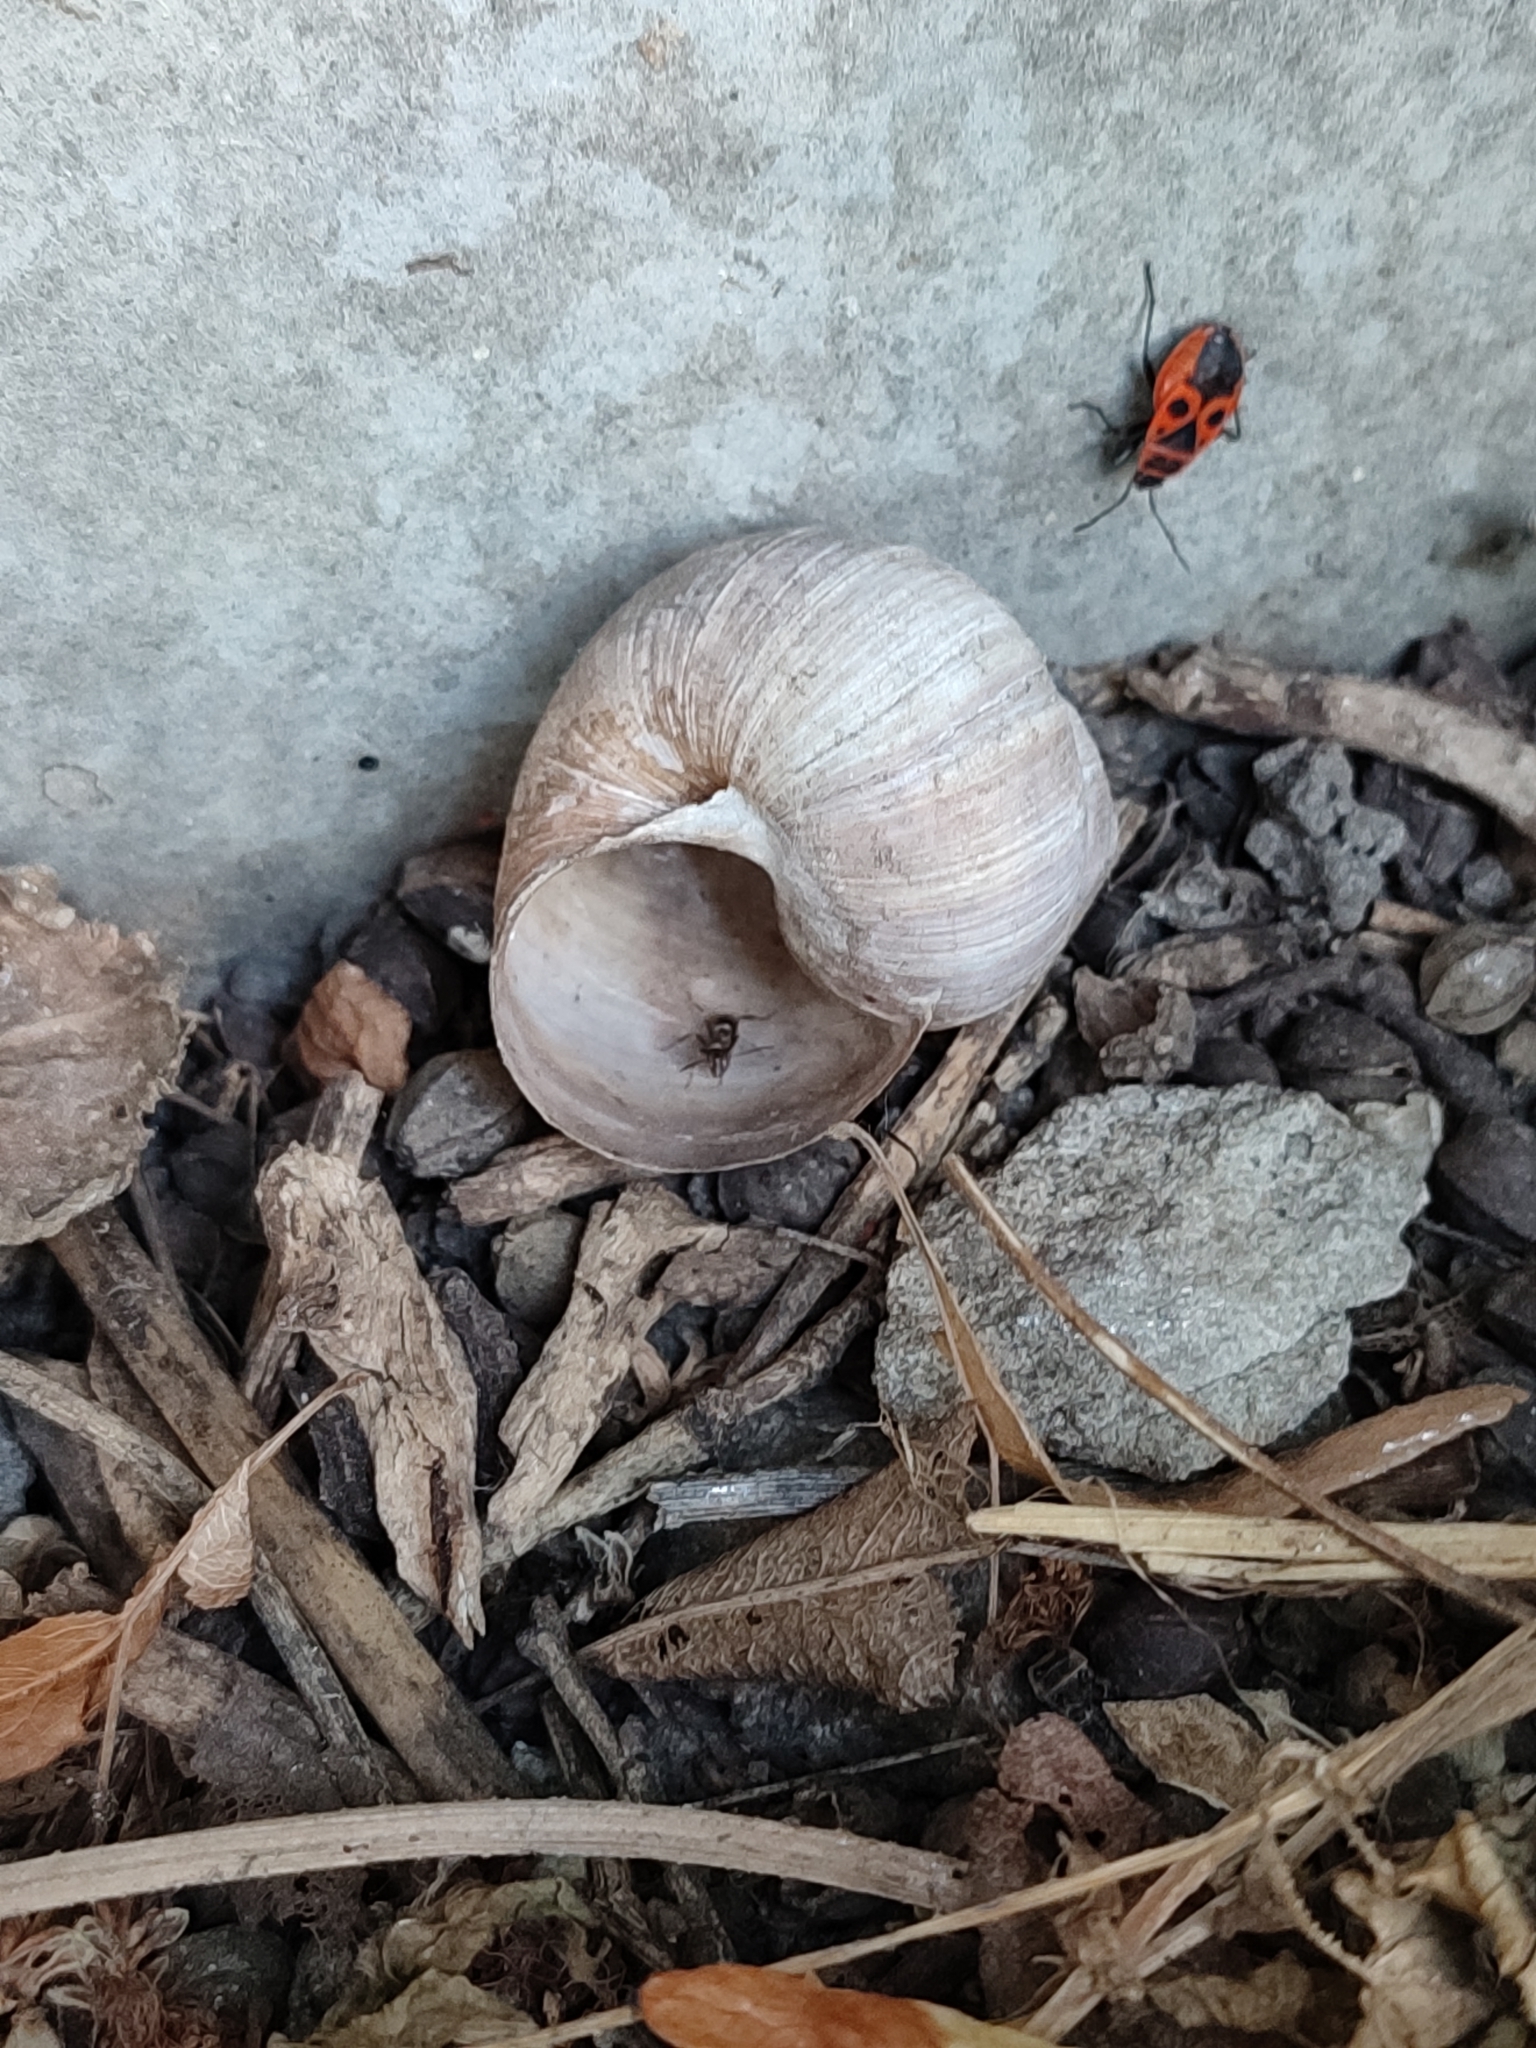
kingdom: Animalia
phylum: Mollusca
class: Gastropoda
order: Stylommatophora
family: Helicidae
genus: Helix
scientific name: Helix pomatia
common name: Roman snail
